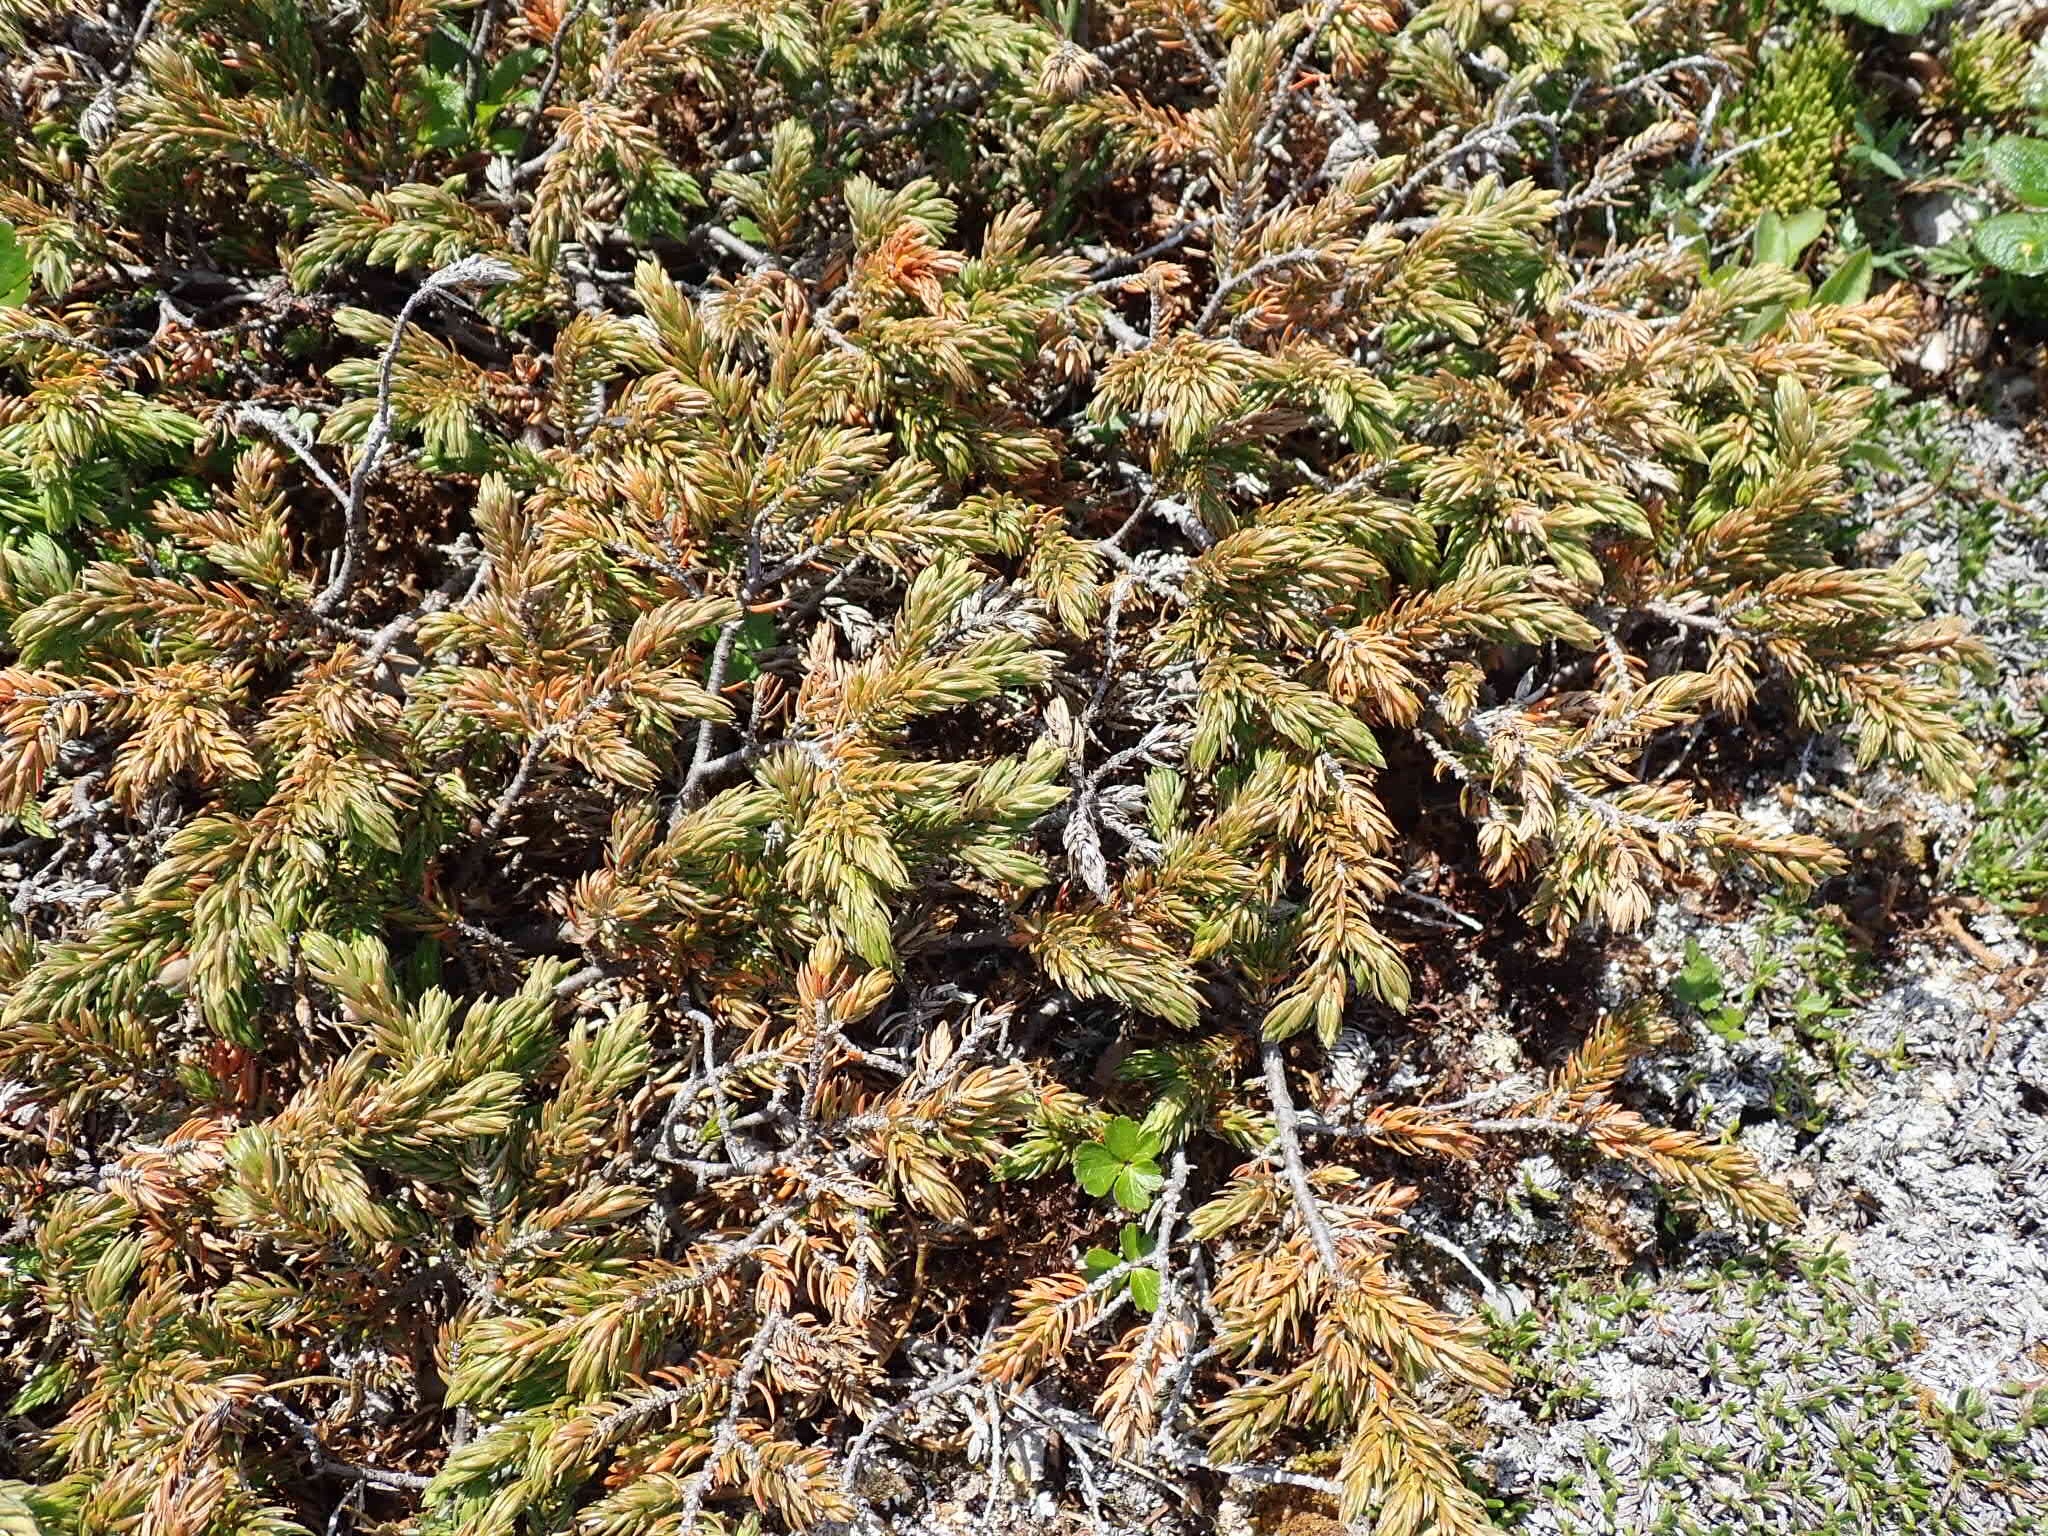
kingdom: Plantae
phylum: Tracheophyta
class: Pinopsida
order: Pinales
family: Cupressaceae
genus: Juniperus
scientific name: Juniperus communis
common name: Common juniper
